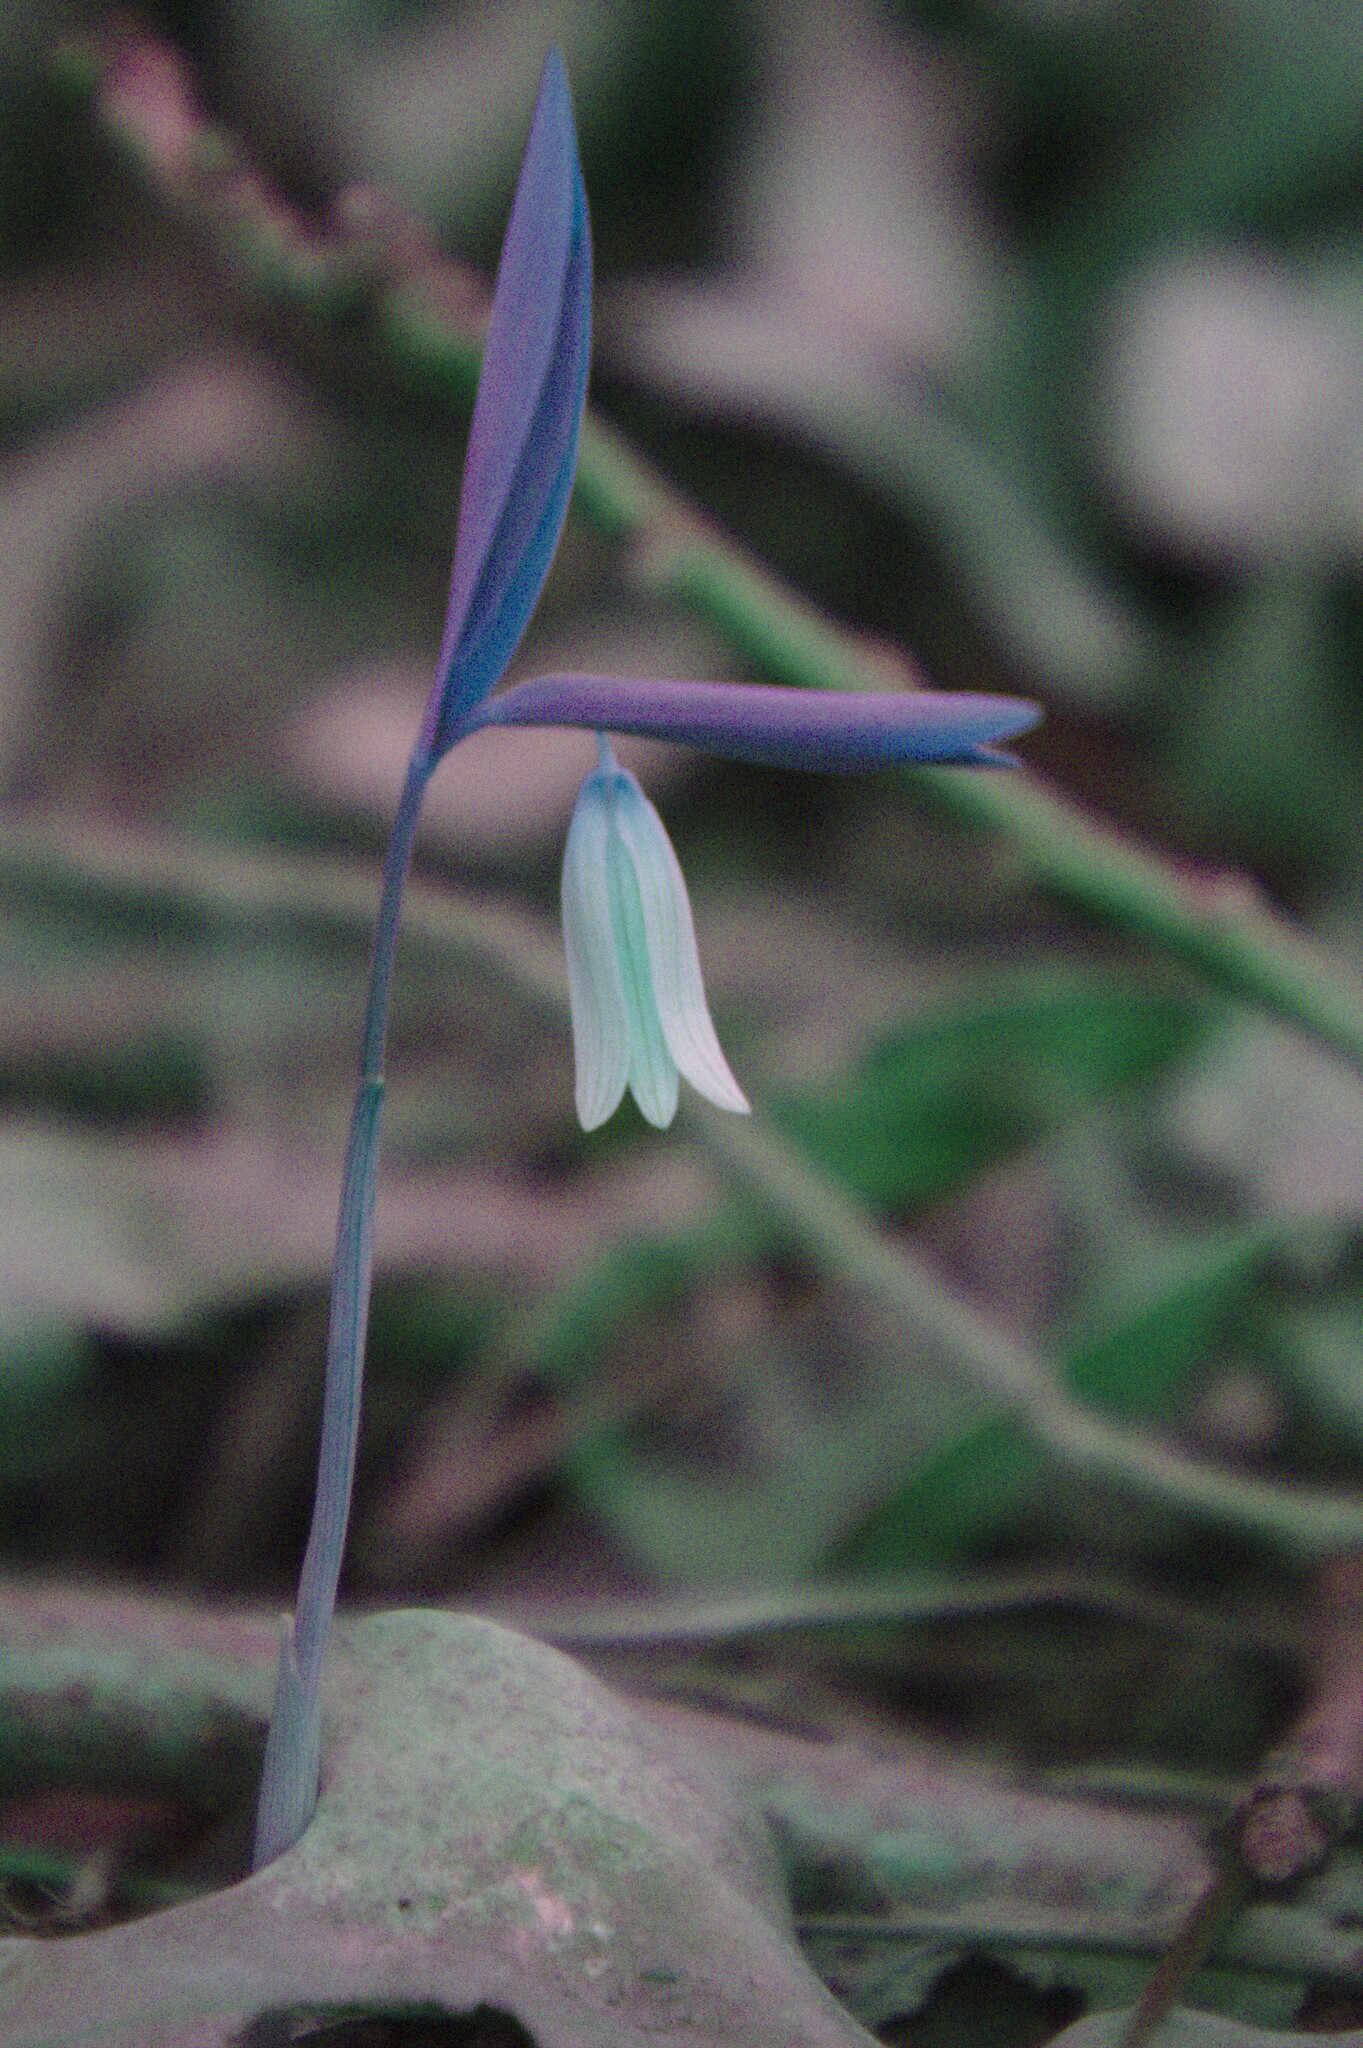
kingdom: Plantae
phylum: Tracheophyta
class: Liliopsida
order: Liliales
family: Colchicaceae
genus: Uvularia
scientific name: Uvularia sessilifolia
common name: Straw-lily
